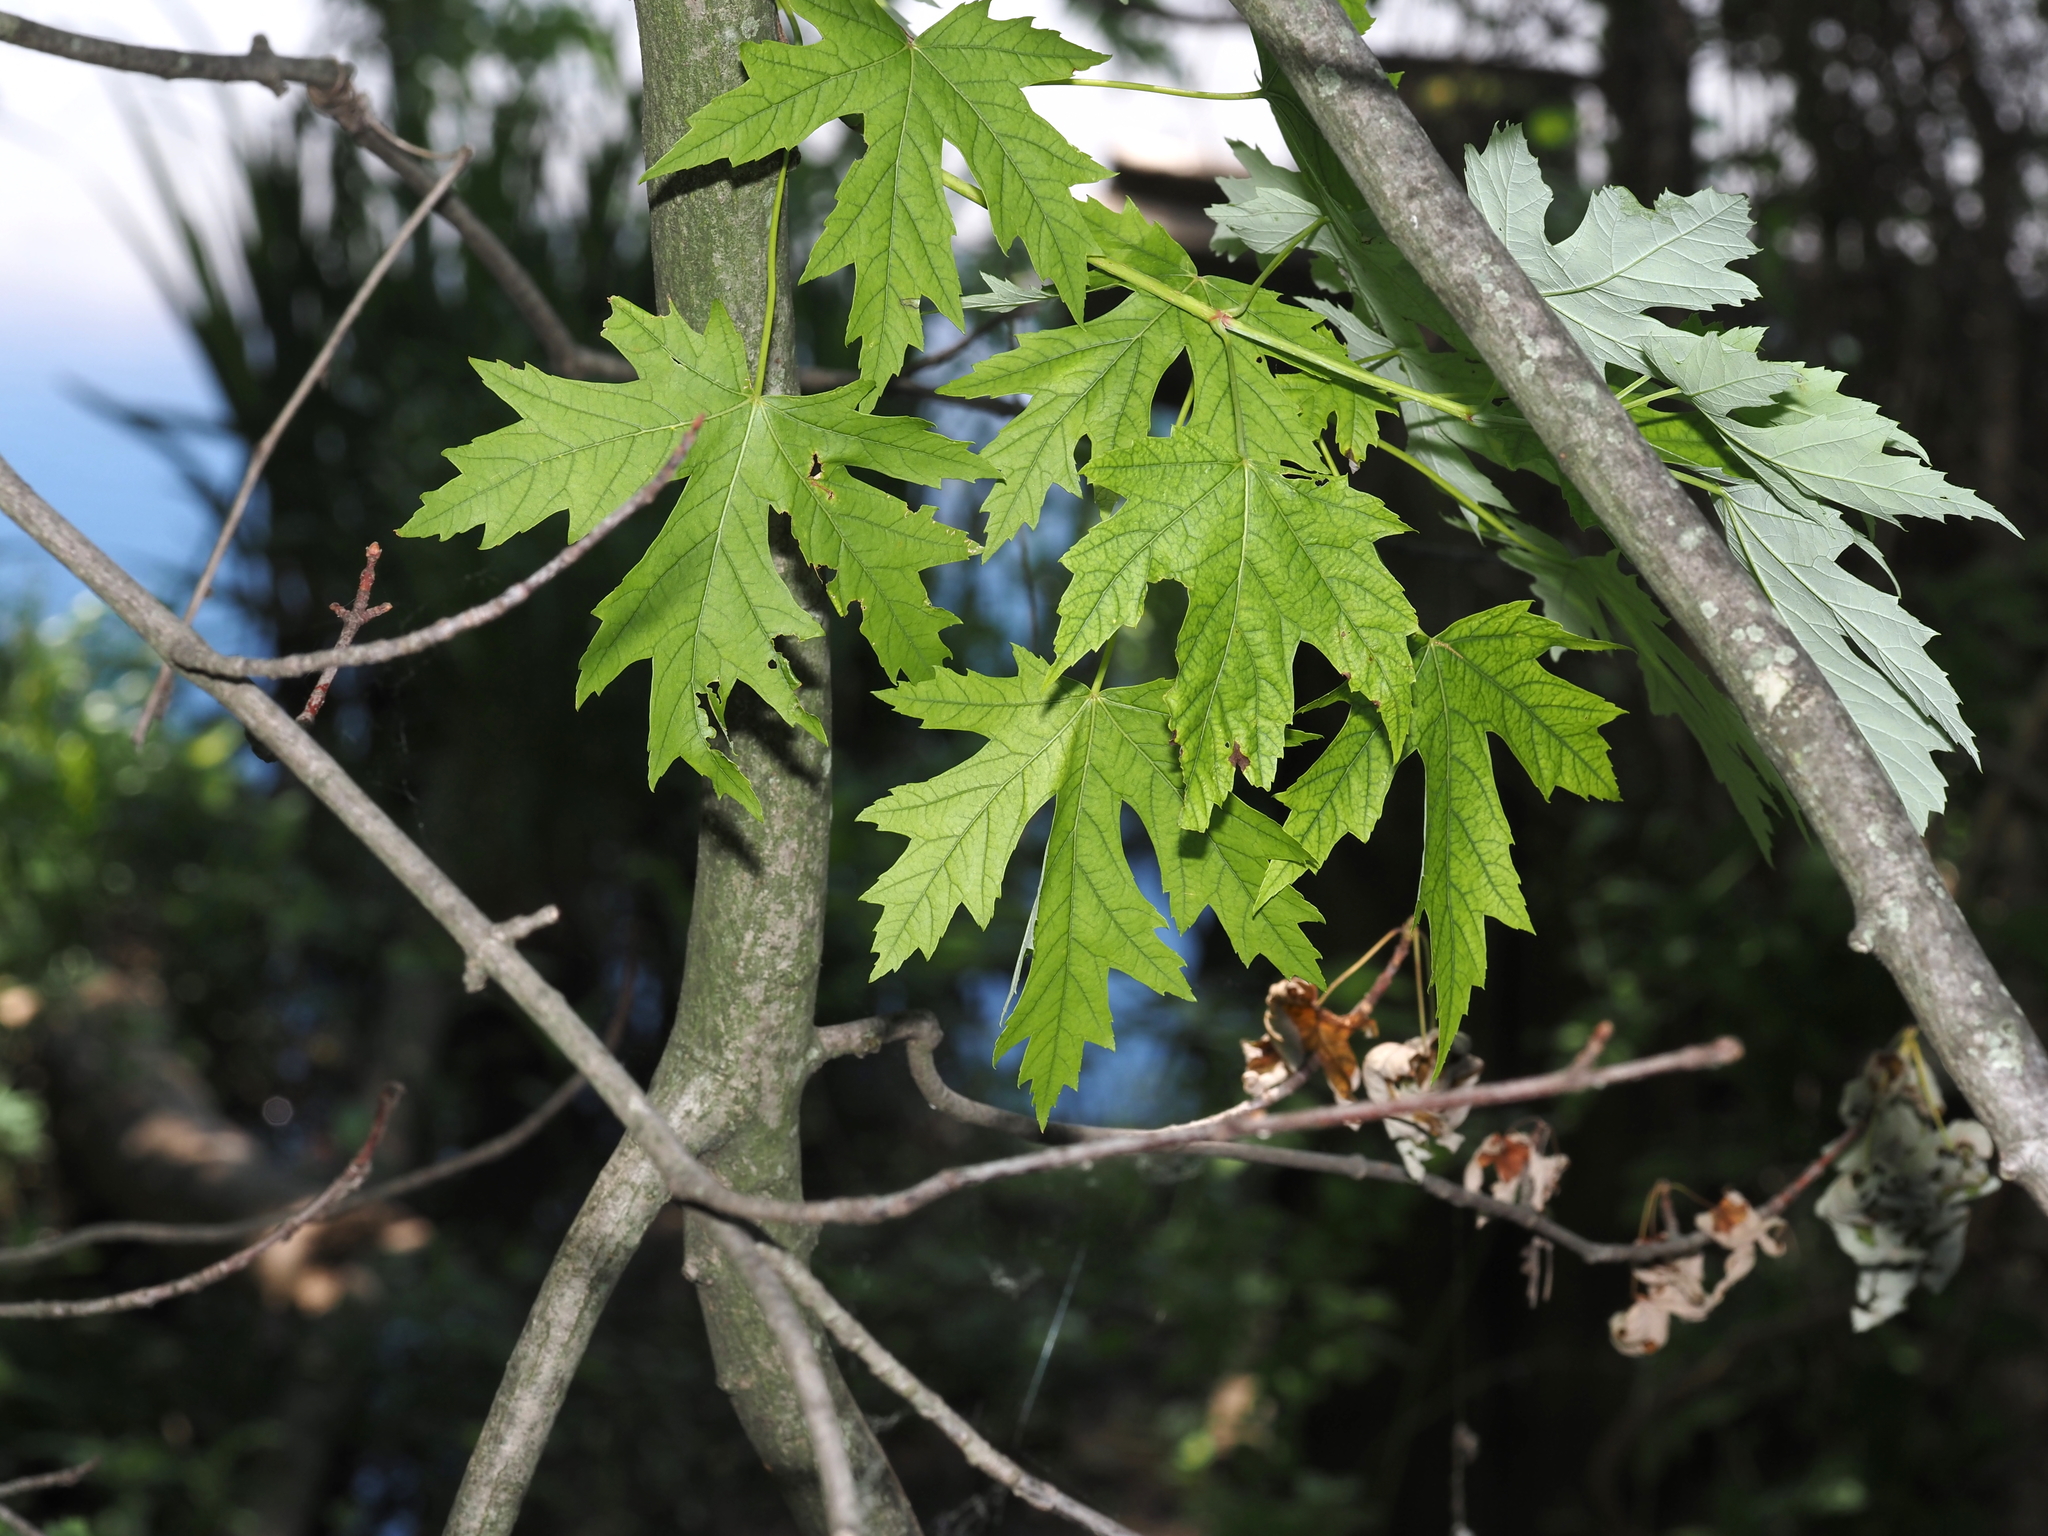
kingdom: Plantae
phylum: Tracheophyta
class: Magnoliopsida
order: Sapindales
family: Sapindaceae
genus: Acer
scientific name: Acer saccharinum
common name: Silver maple
